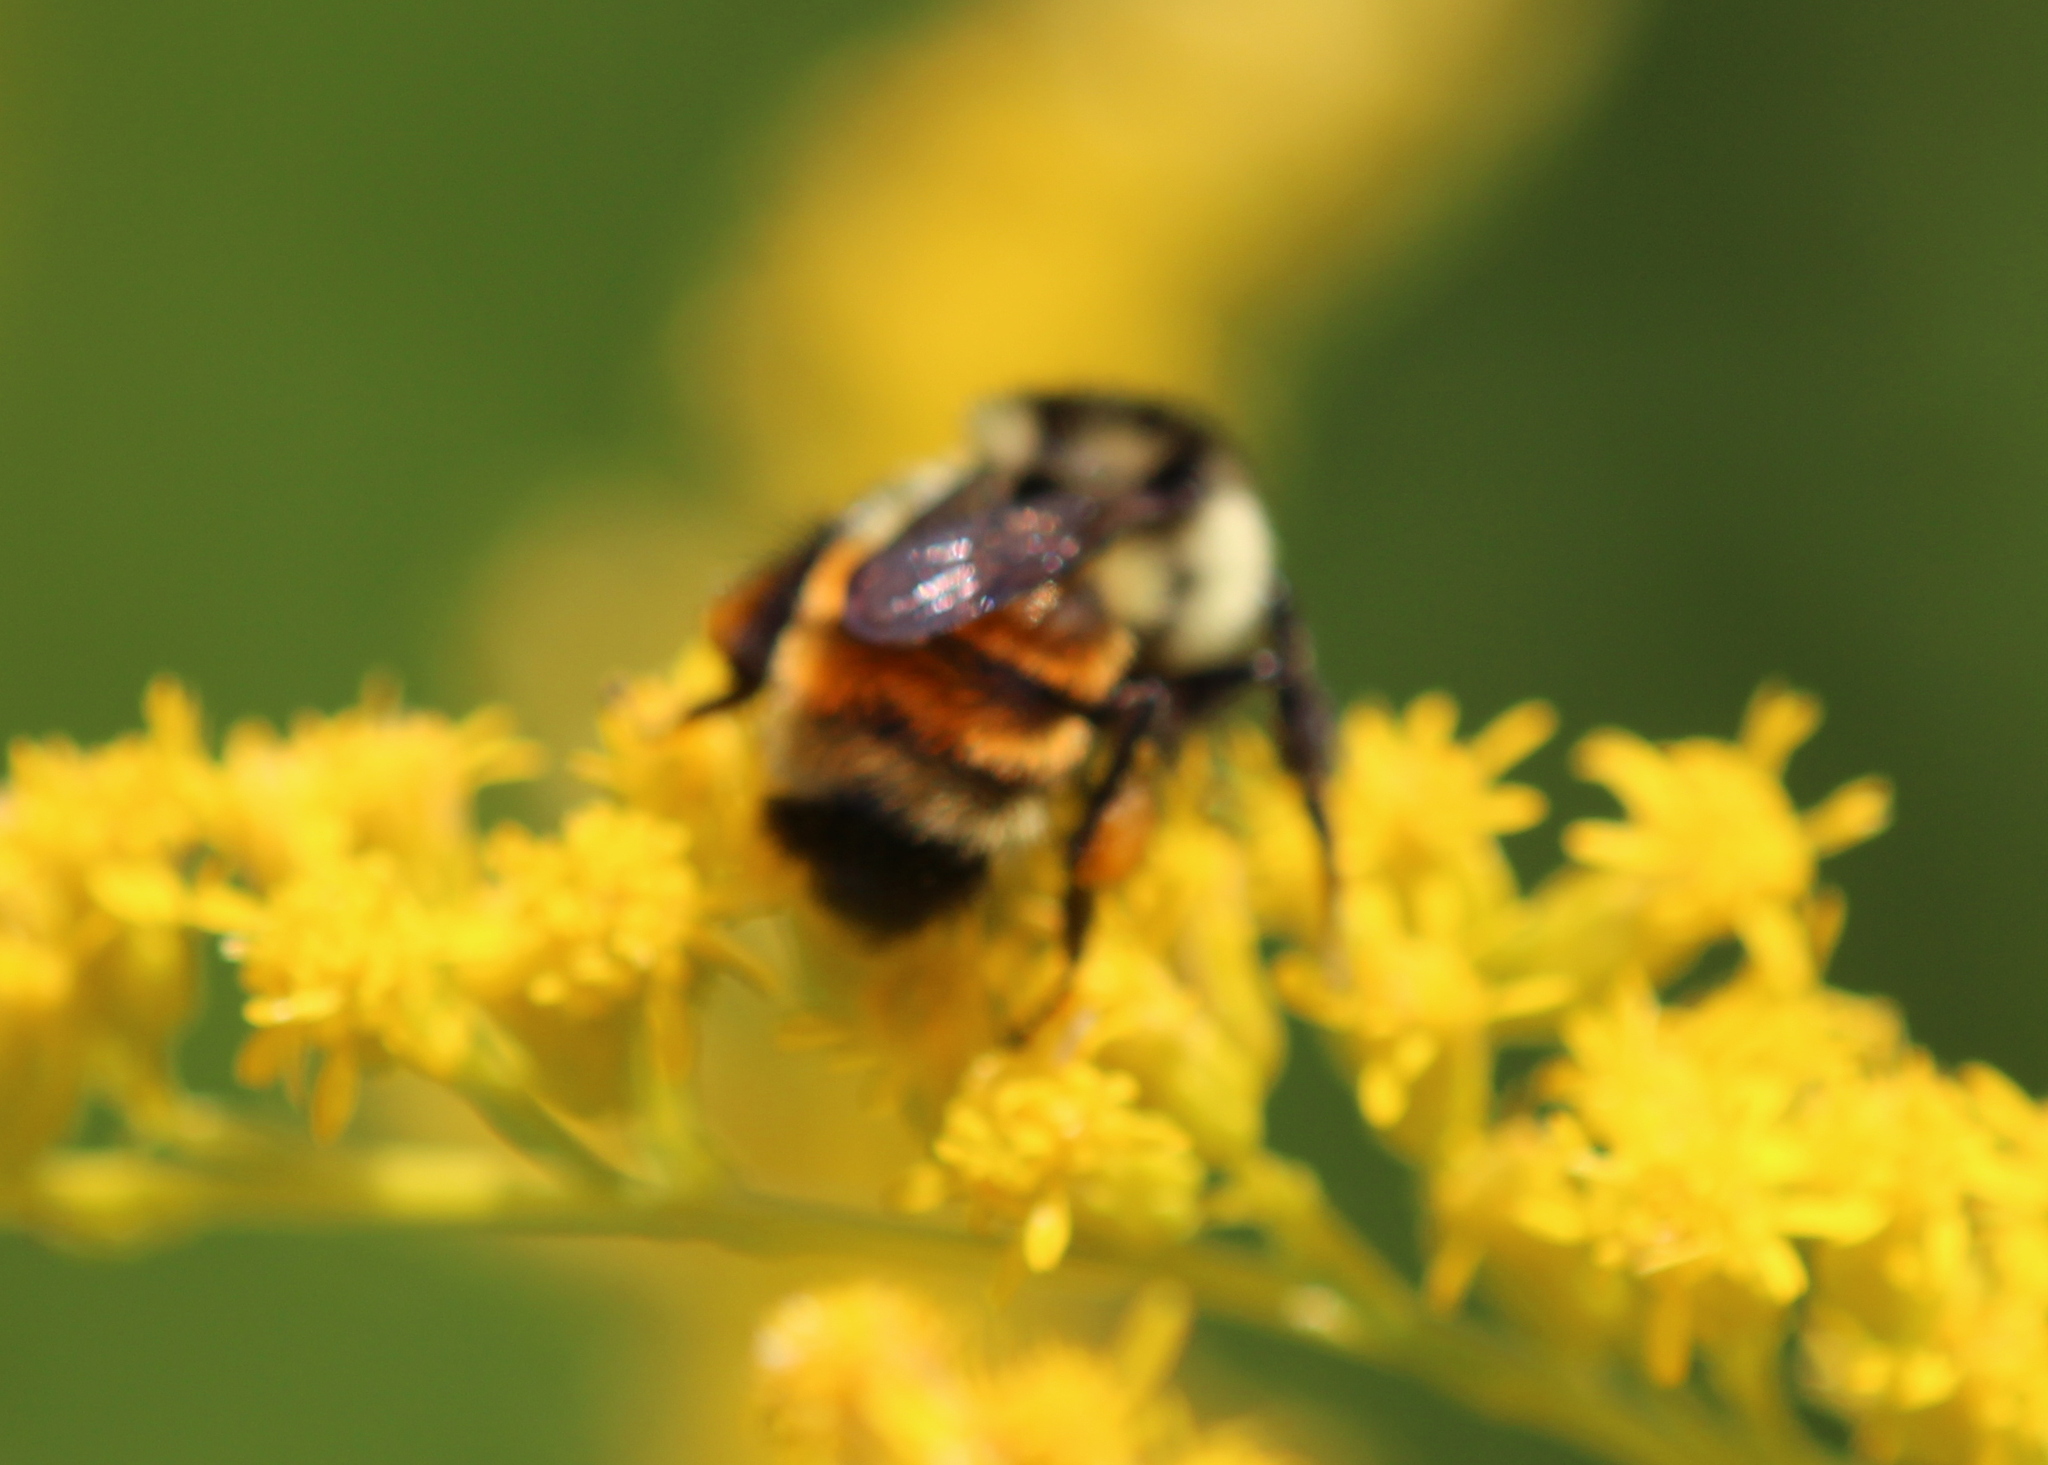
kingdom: Animalia
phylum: Arthropoda
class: Insecta
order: Hymenoptera
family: Apidae
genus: Bombus
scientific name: Bombus ternarius
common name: Tri-colored bumble bee
